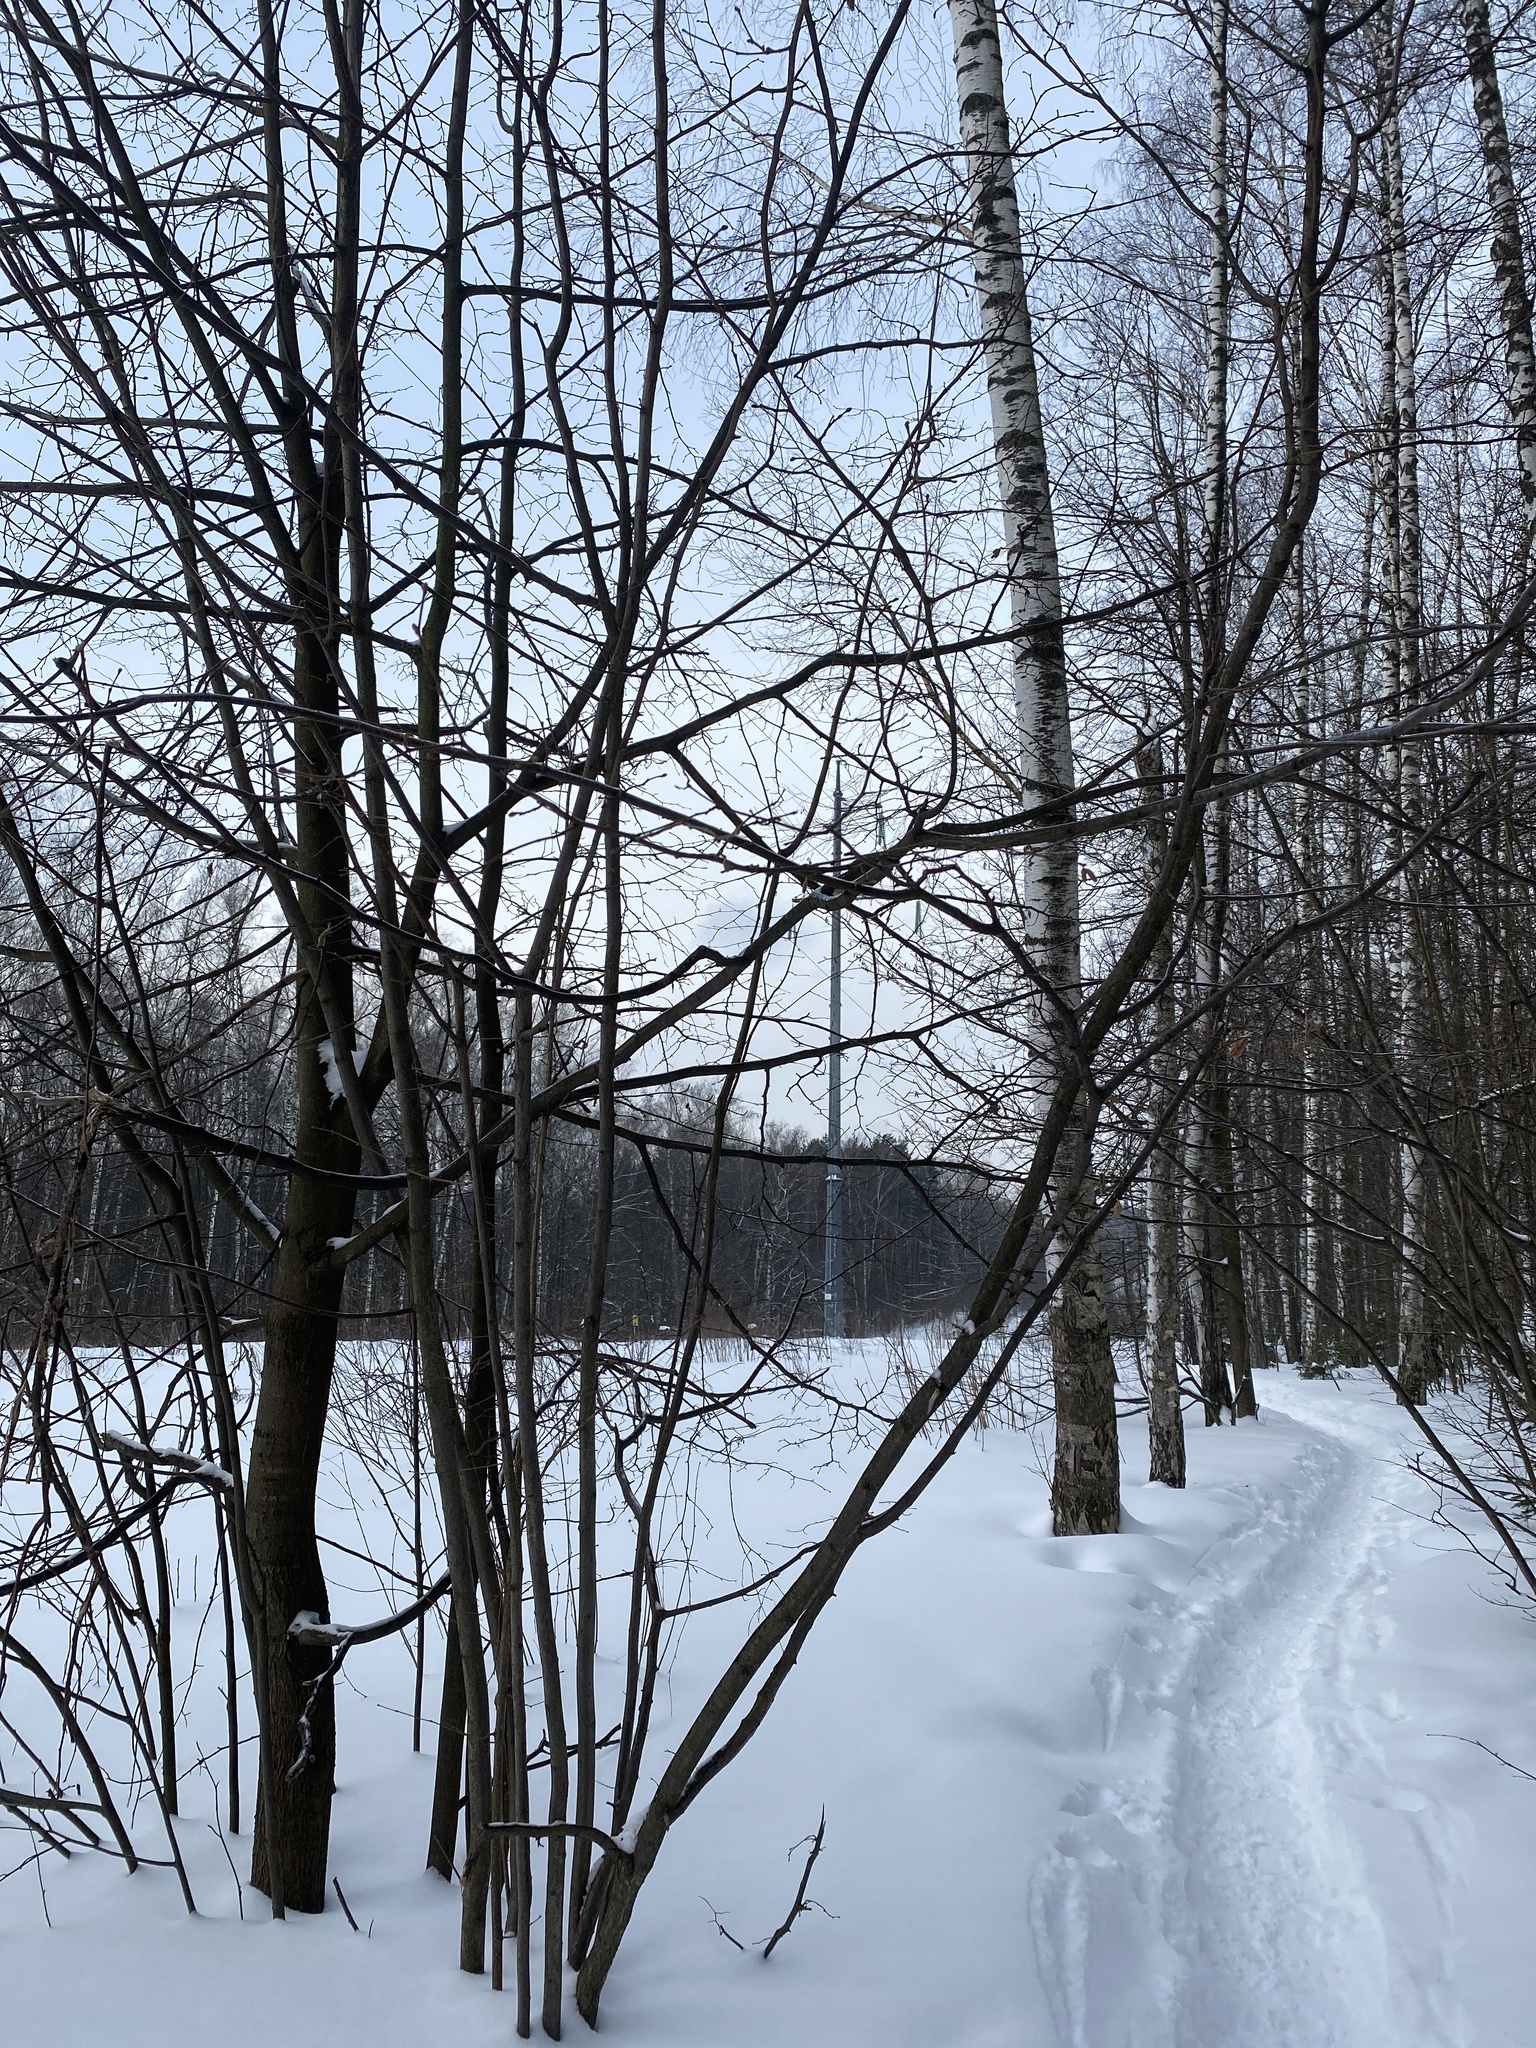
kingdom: Plantae
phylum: Tracheophyta
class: Magnoliopsida
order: Fagales
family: Betulaceae
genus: Corylus
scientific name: Corylus avellana
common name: European hazel
